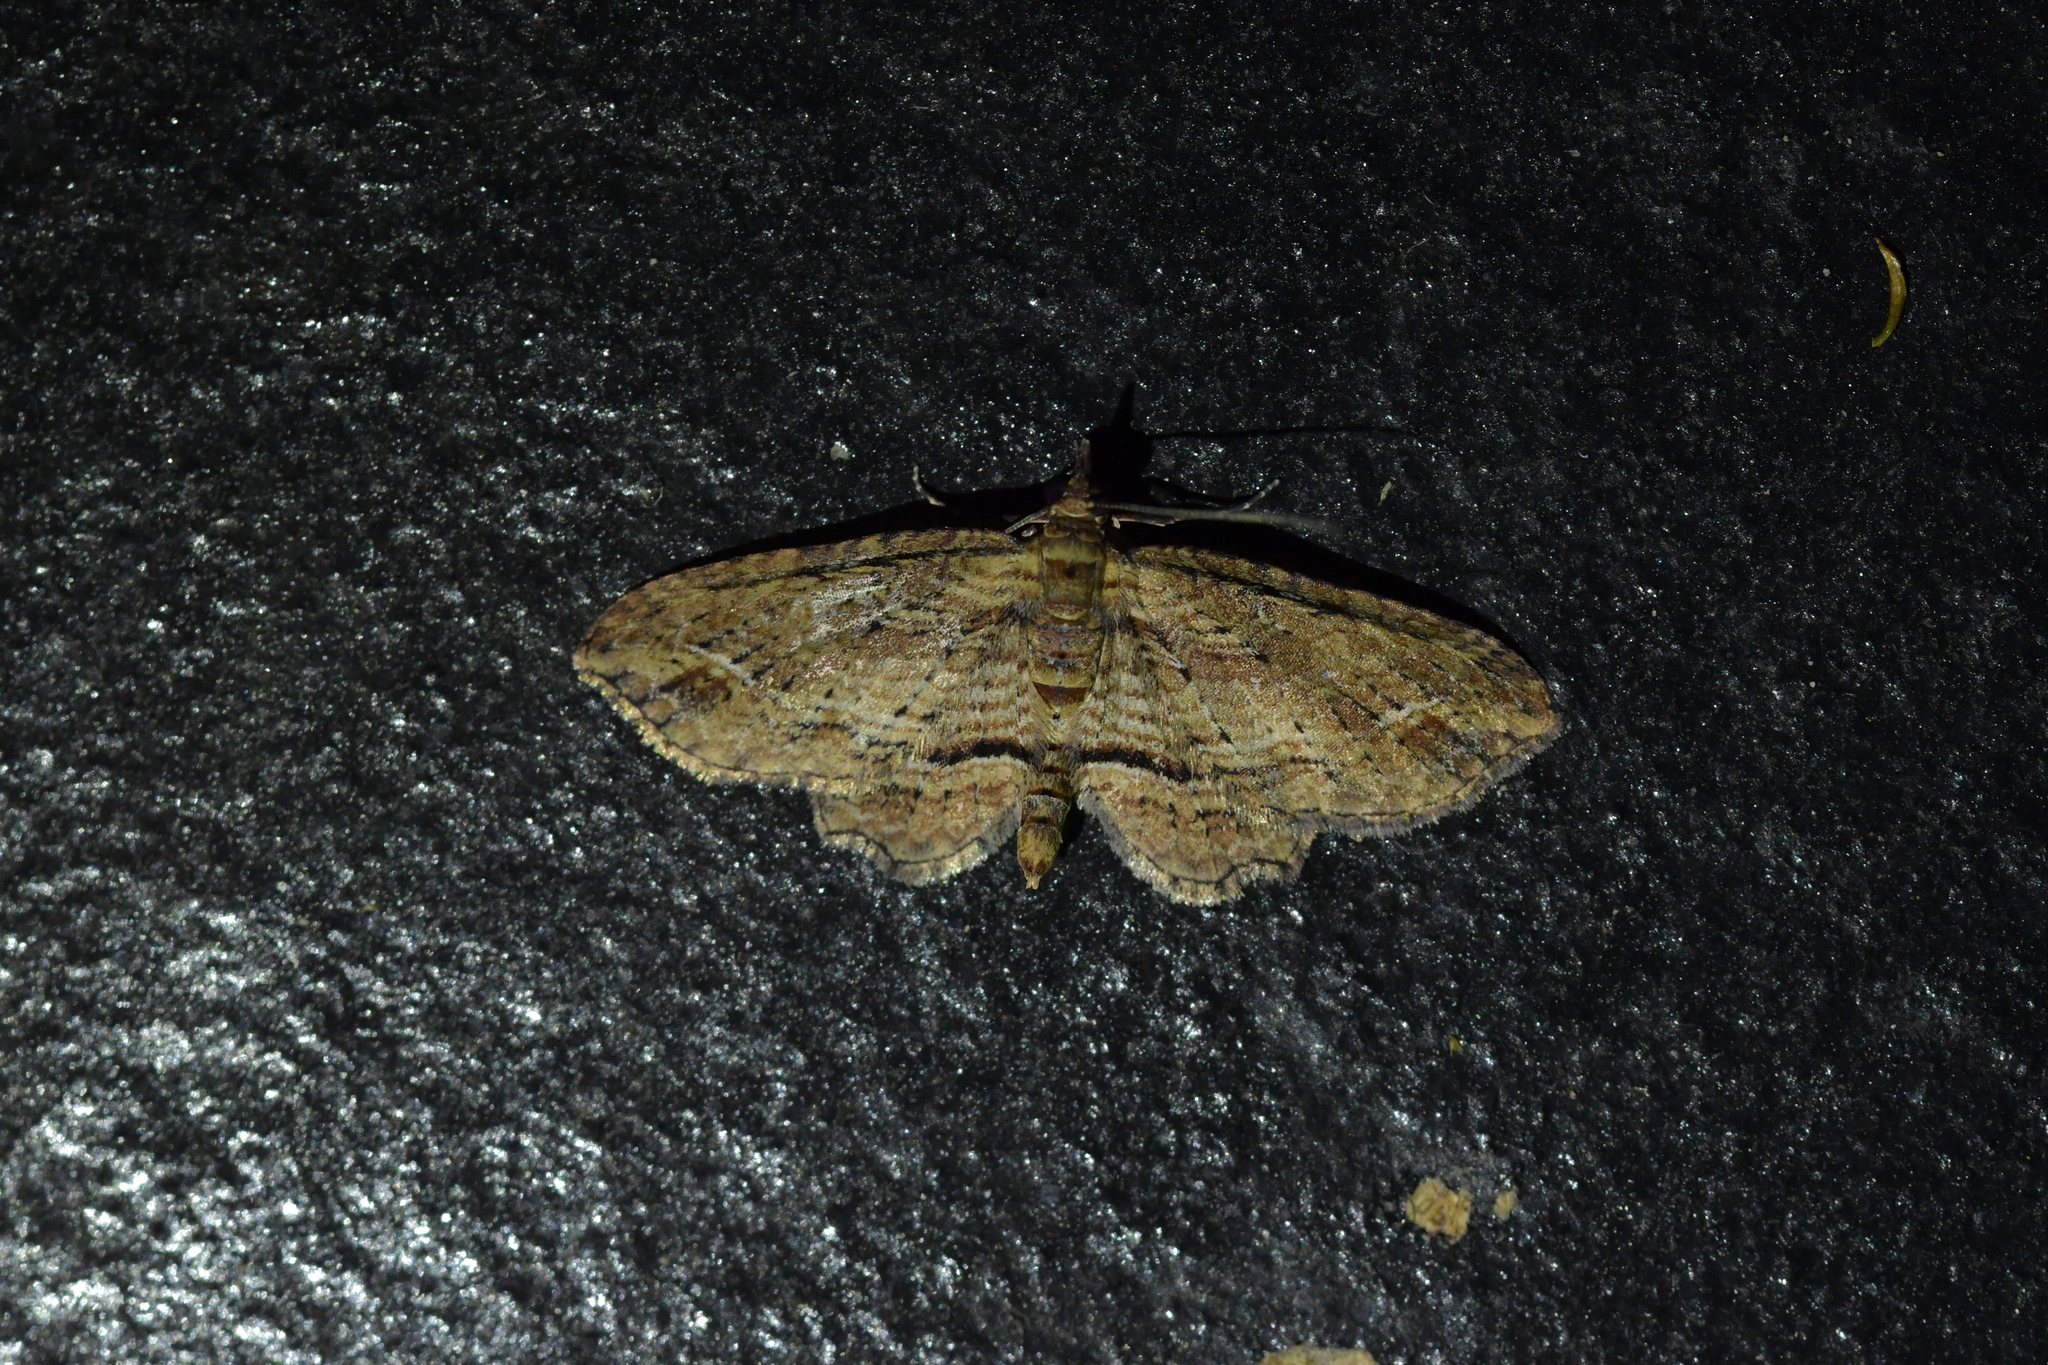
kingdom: Animalia
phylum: Arthropoda
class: Insecta
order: Lepidoptera
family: Geometridae
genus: Chloroclystis
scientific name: Chloroclystis filata
